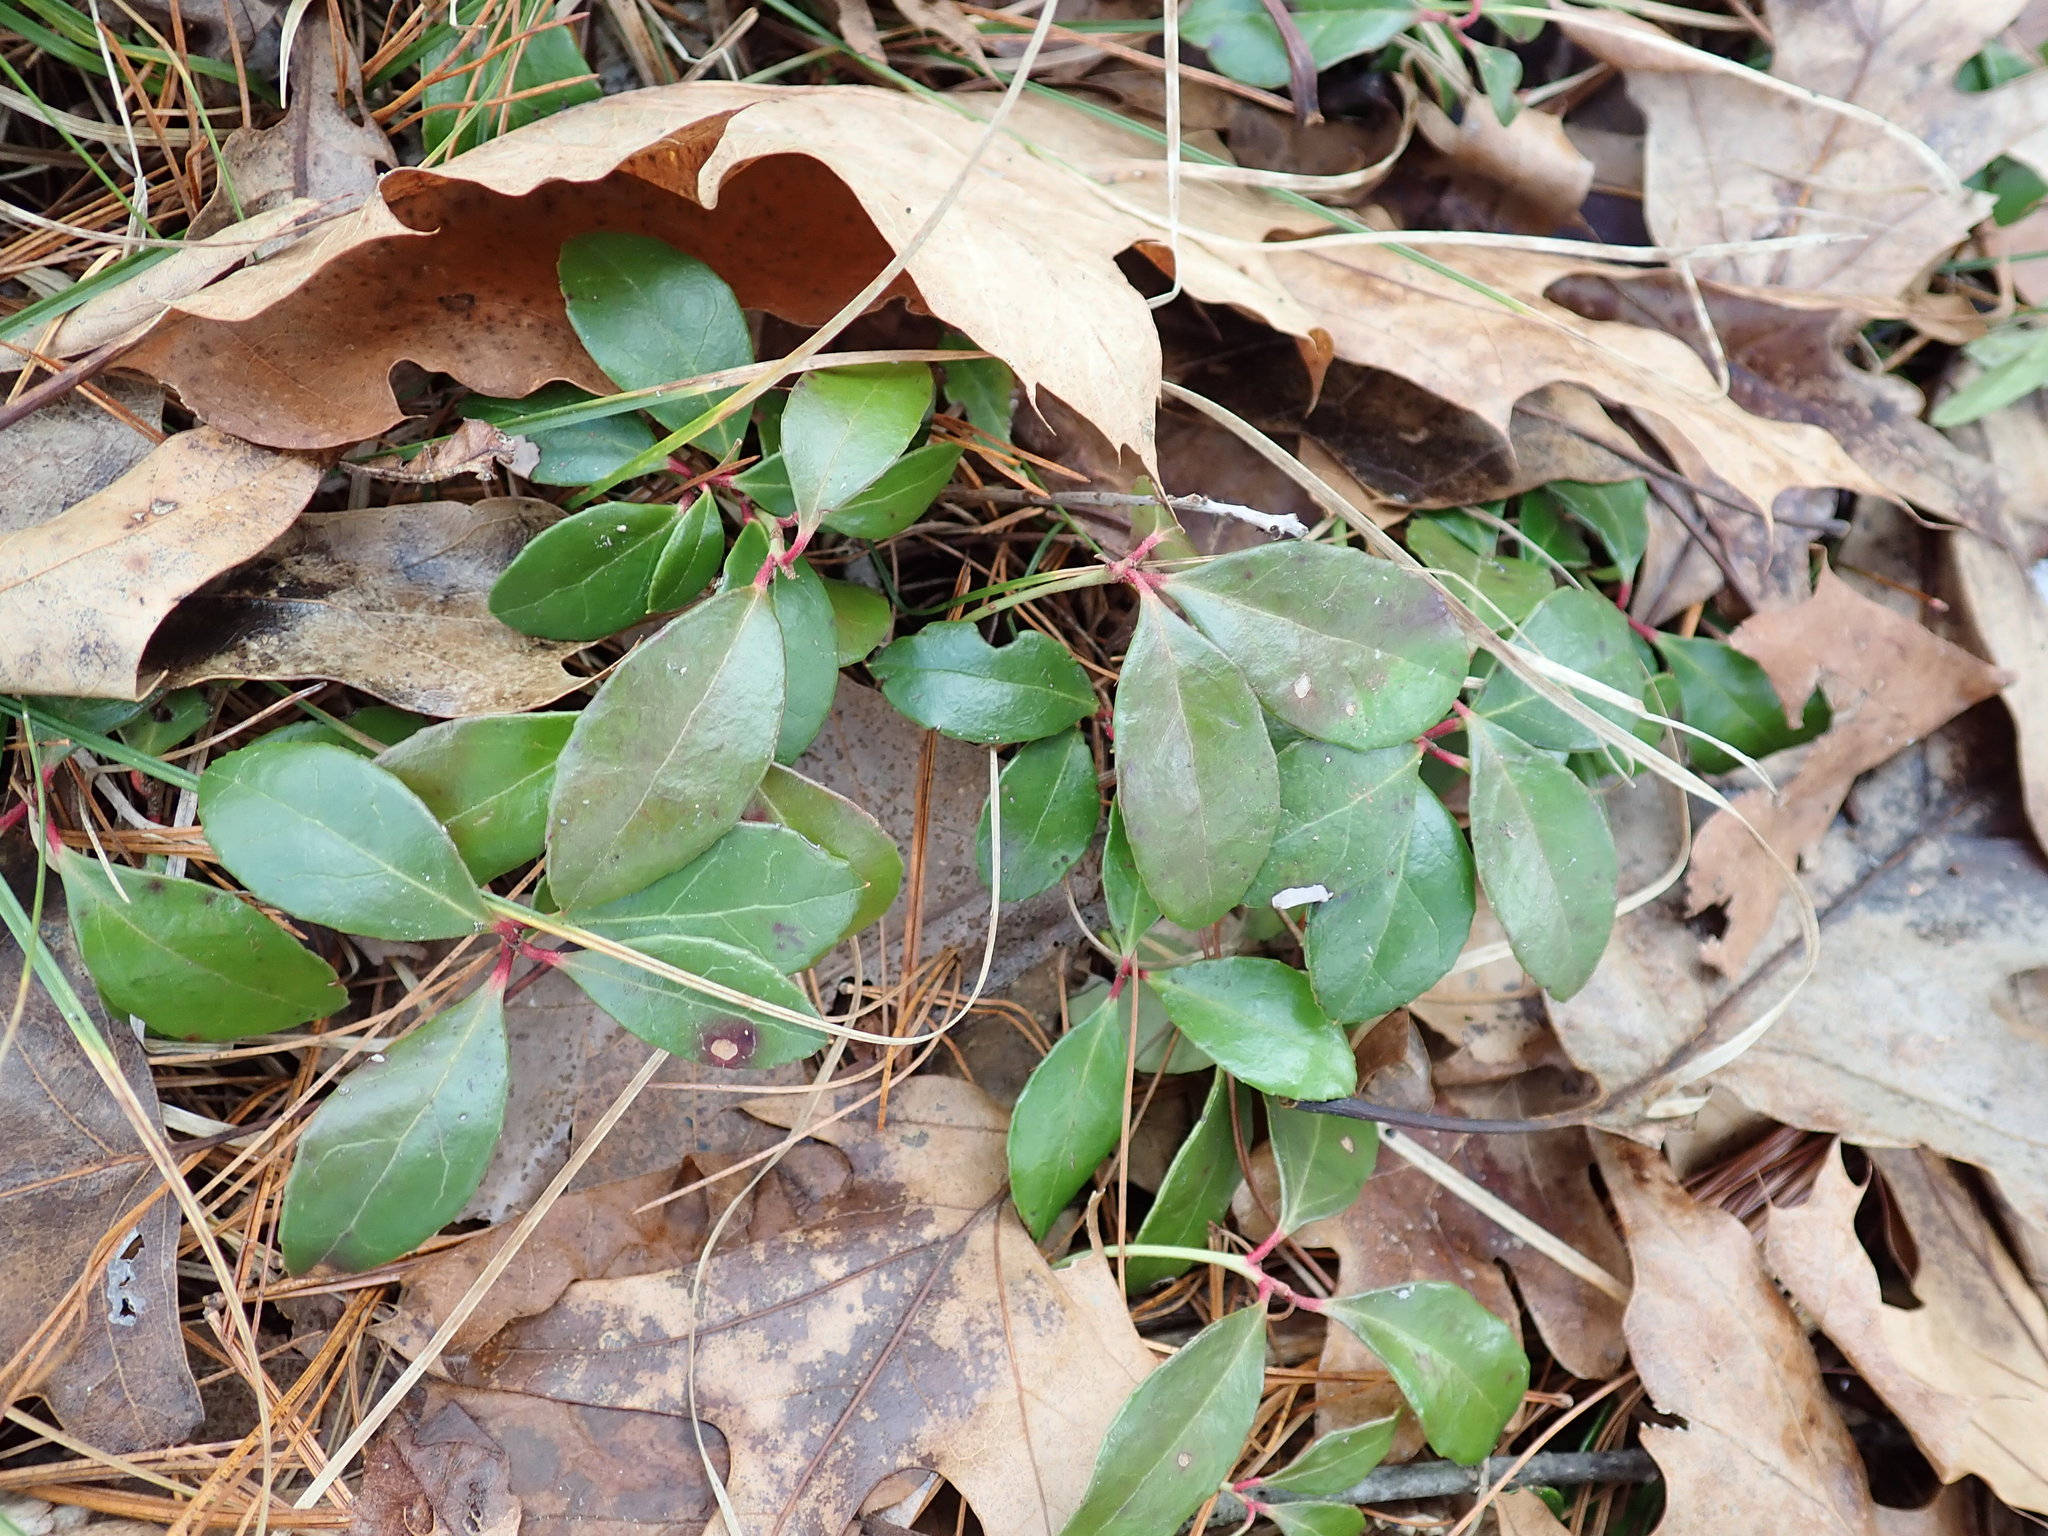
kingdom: Plantae
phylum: Tracheophyta
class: Magnoliopsida
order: Ericales
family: Ericaceae
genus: Gaultheria
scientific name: Gaultheria procumbens
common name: Checkerberry
